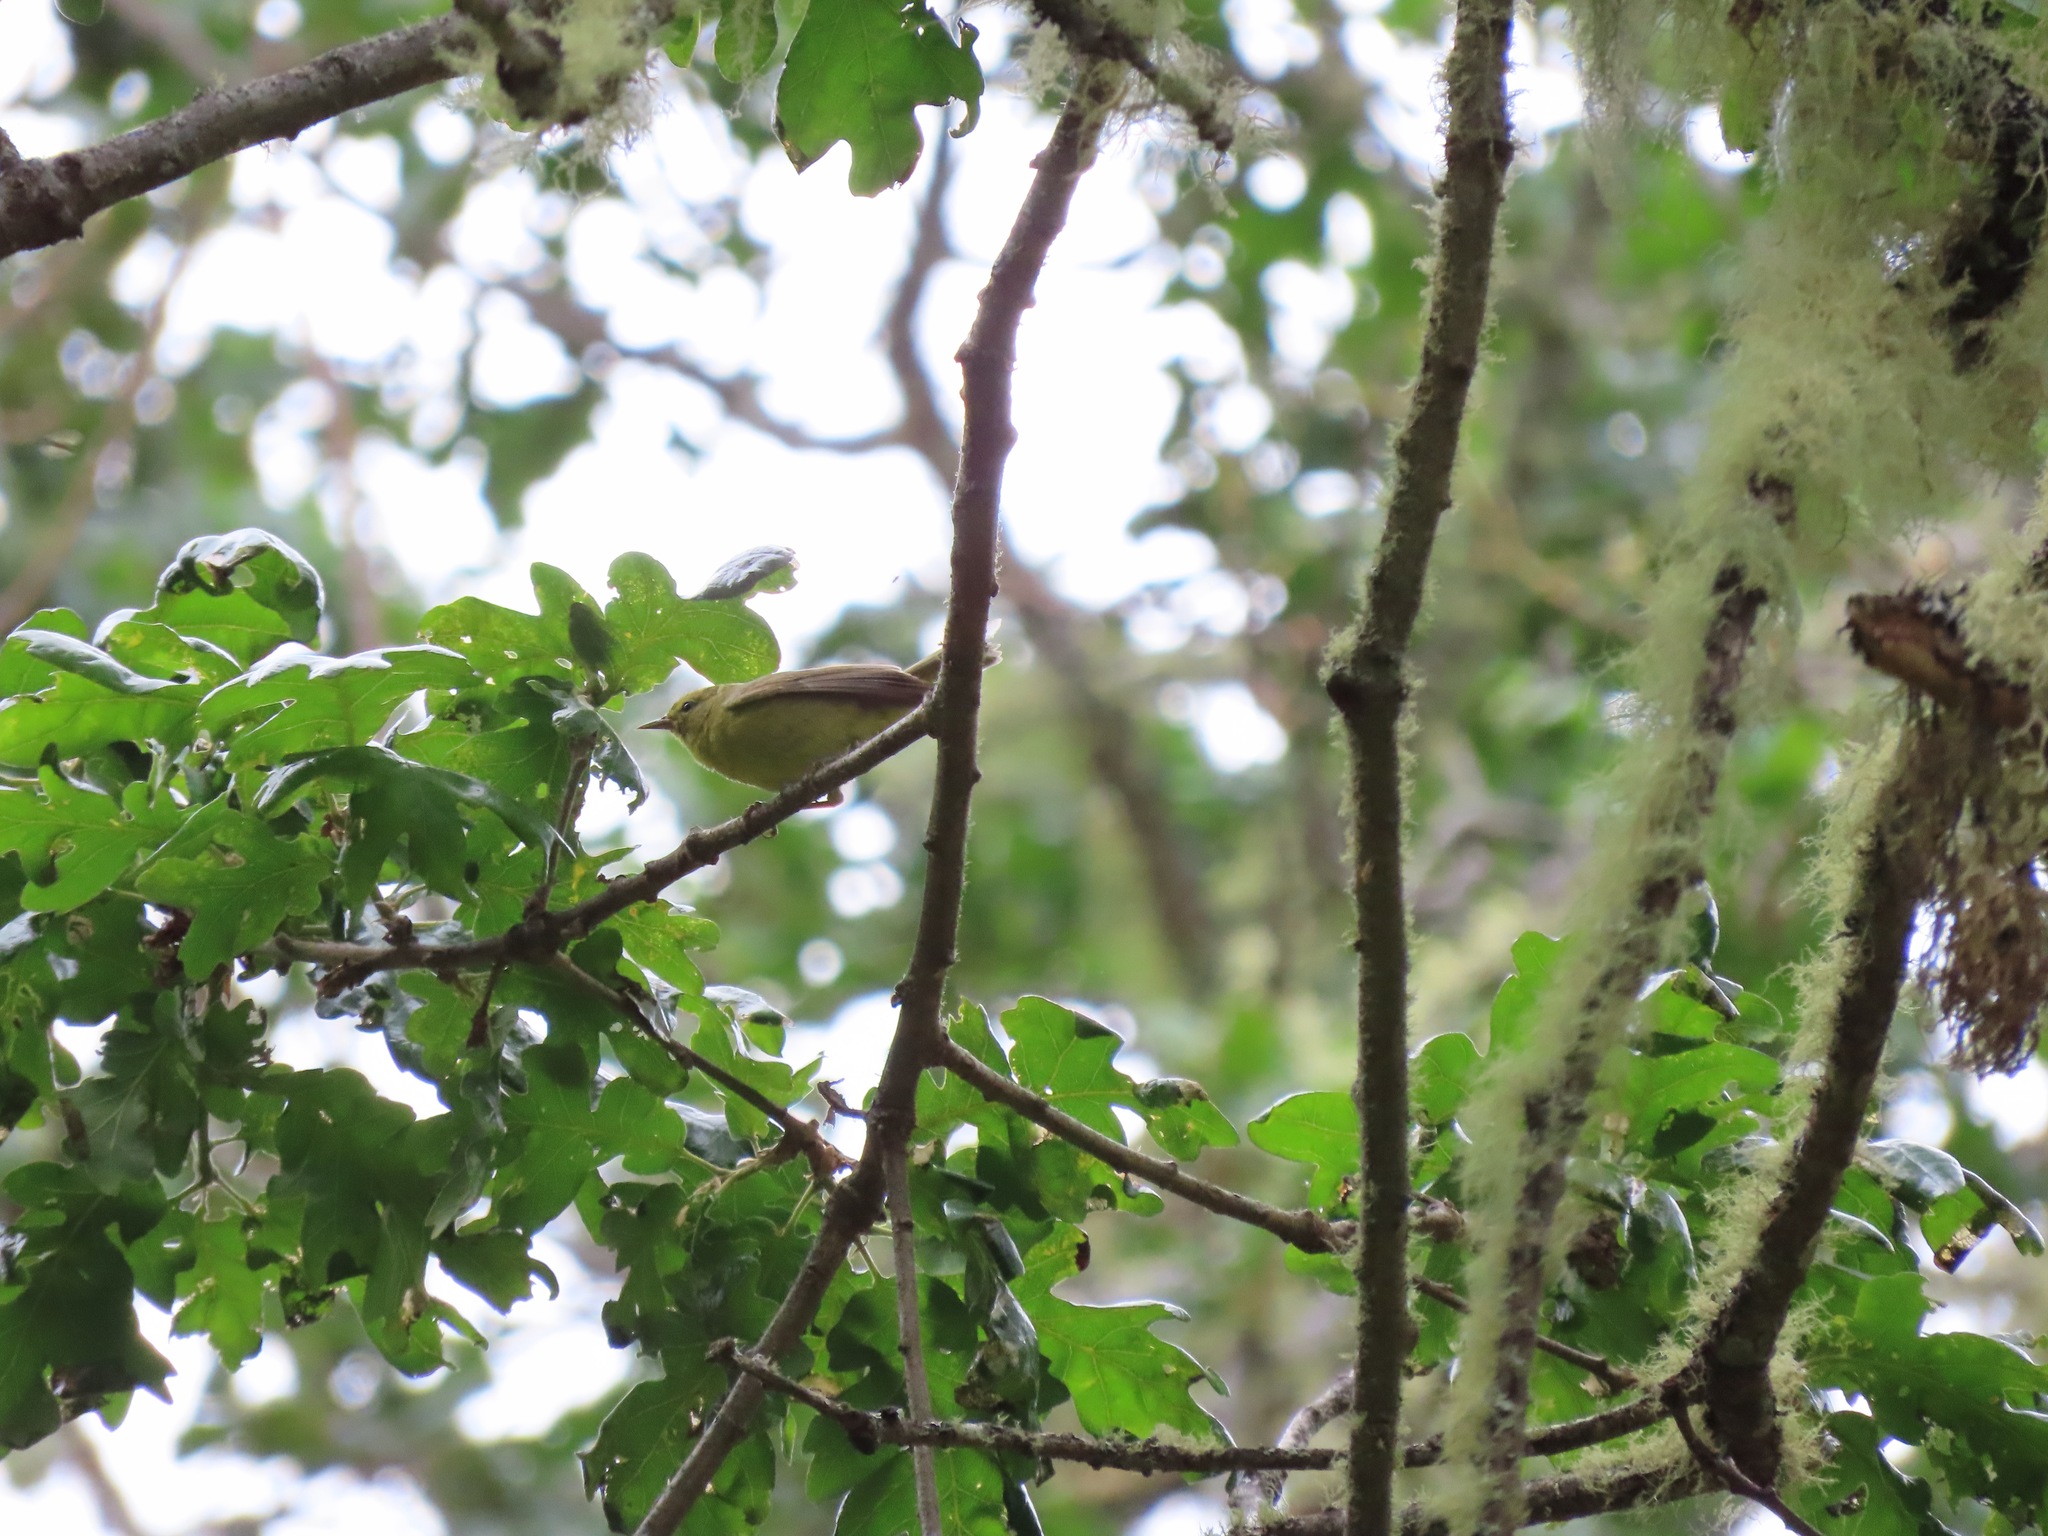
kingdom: Animalia
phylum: Chordata
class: Aves
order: Passeriformes
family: Parulidae
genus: Leiothlypis
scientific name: Leiothlypis celata
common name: Orange-crowned warbler
